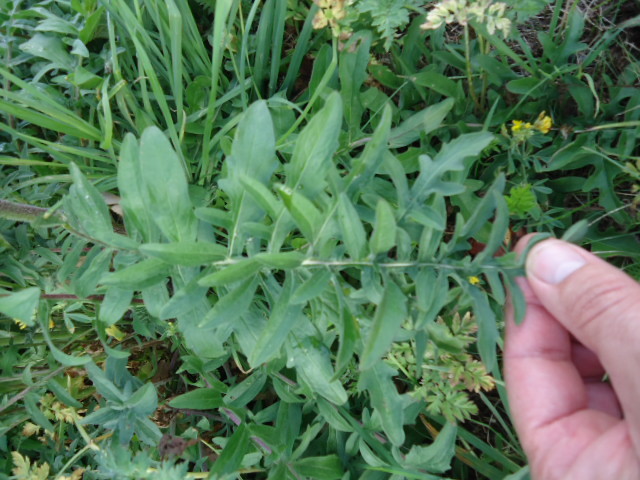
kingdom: Plantae
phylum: Tracheophyta
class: Magnoliopsida
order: Asterales
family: Asteraceae
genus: Centaurea
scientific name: Centaurea scabiosa
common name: Greater knapweed
